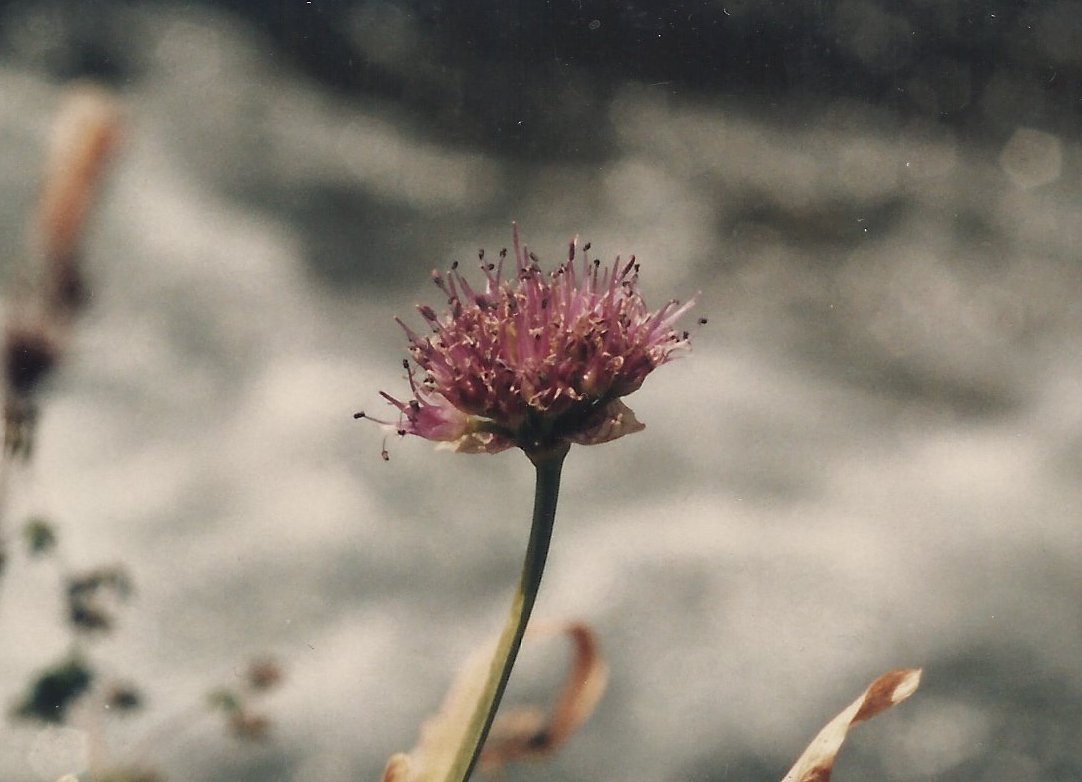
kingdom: Plantae
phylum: Tracheophyta
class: Liliopsida
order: Asparagales
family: Amaryllidaceae
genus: Allium
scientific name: Allium validum
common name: Pacific mountain onion
